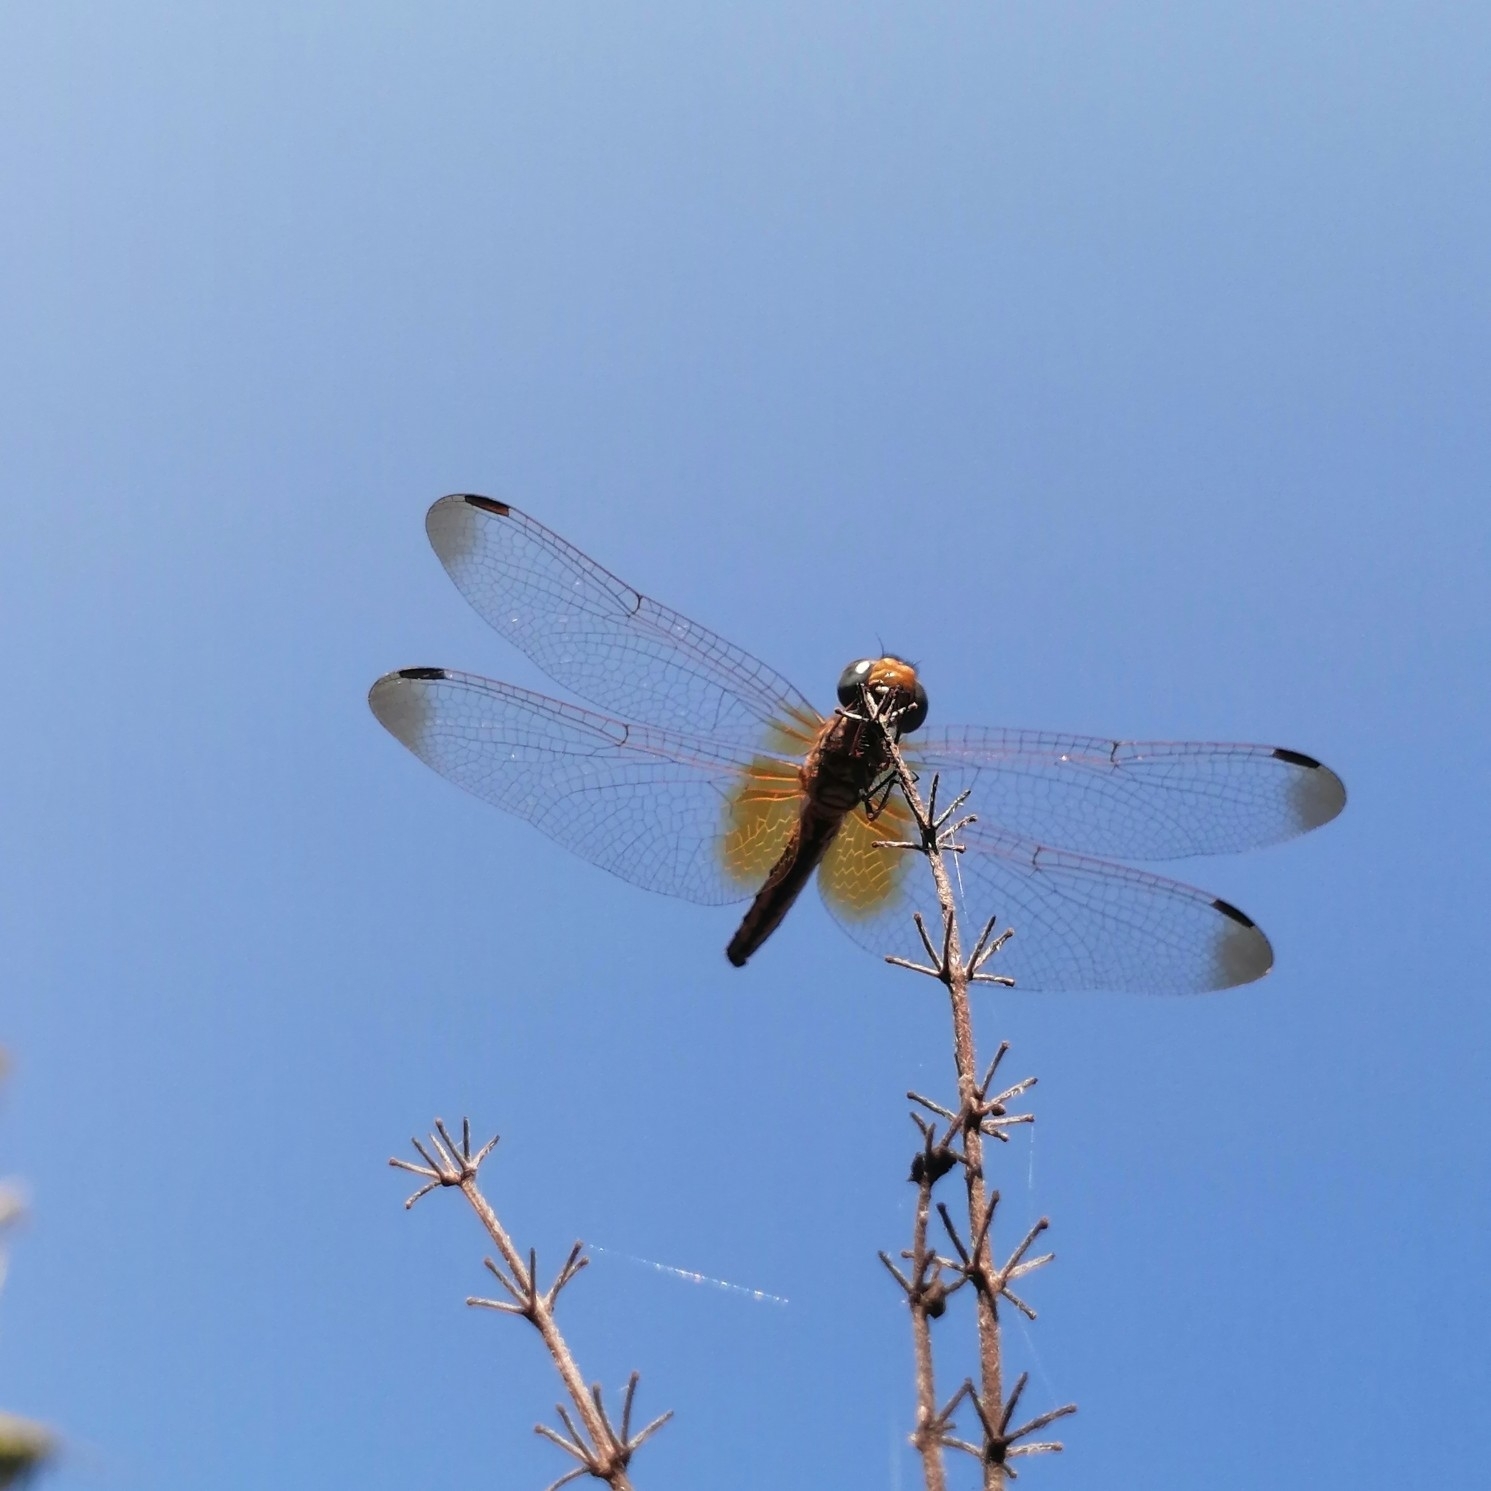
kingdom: Animalia
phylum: Arthropoda
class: Insecta
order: Odonata
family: Libellulidae
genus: Trithemis
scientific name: Trithemis aurora
